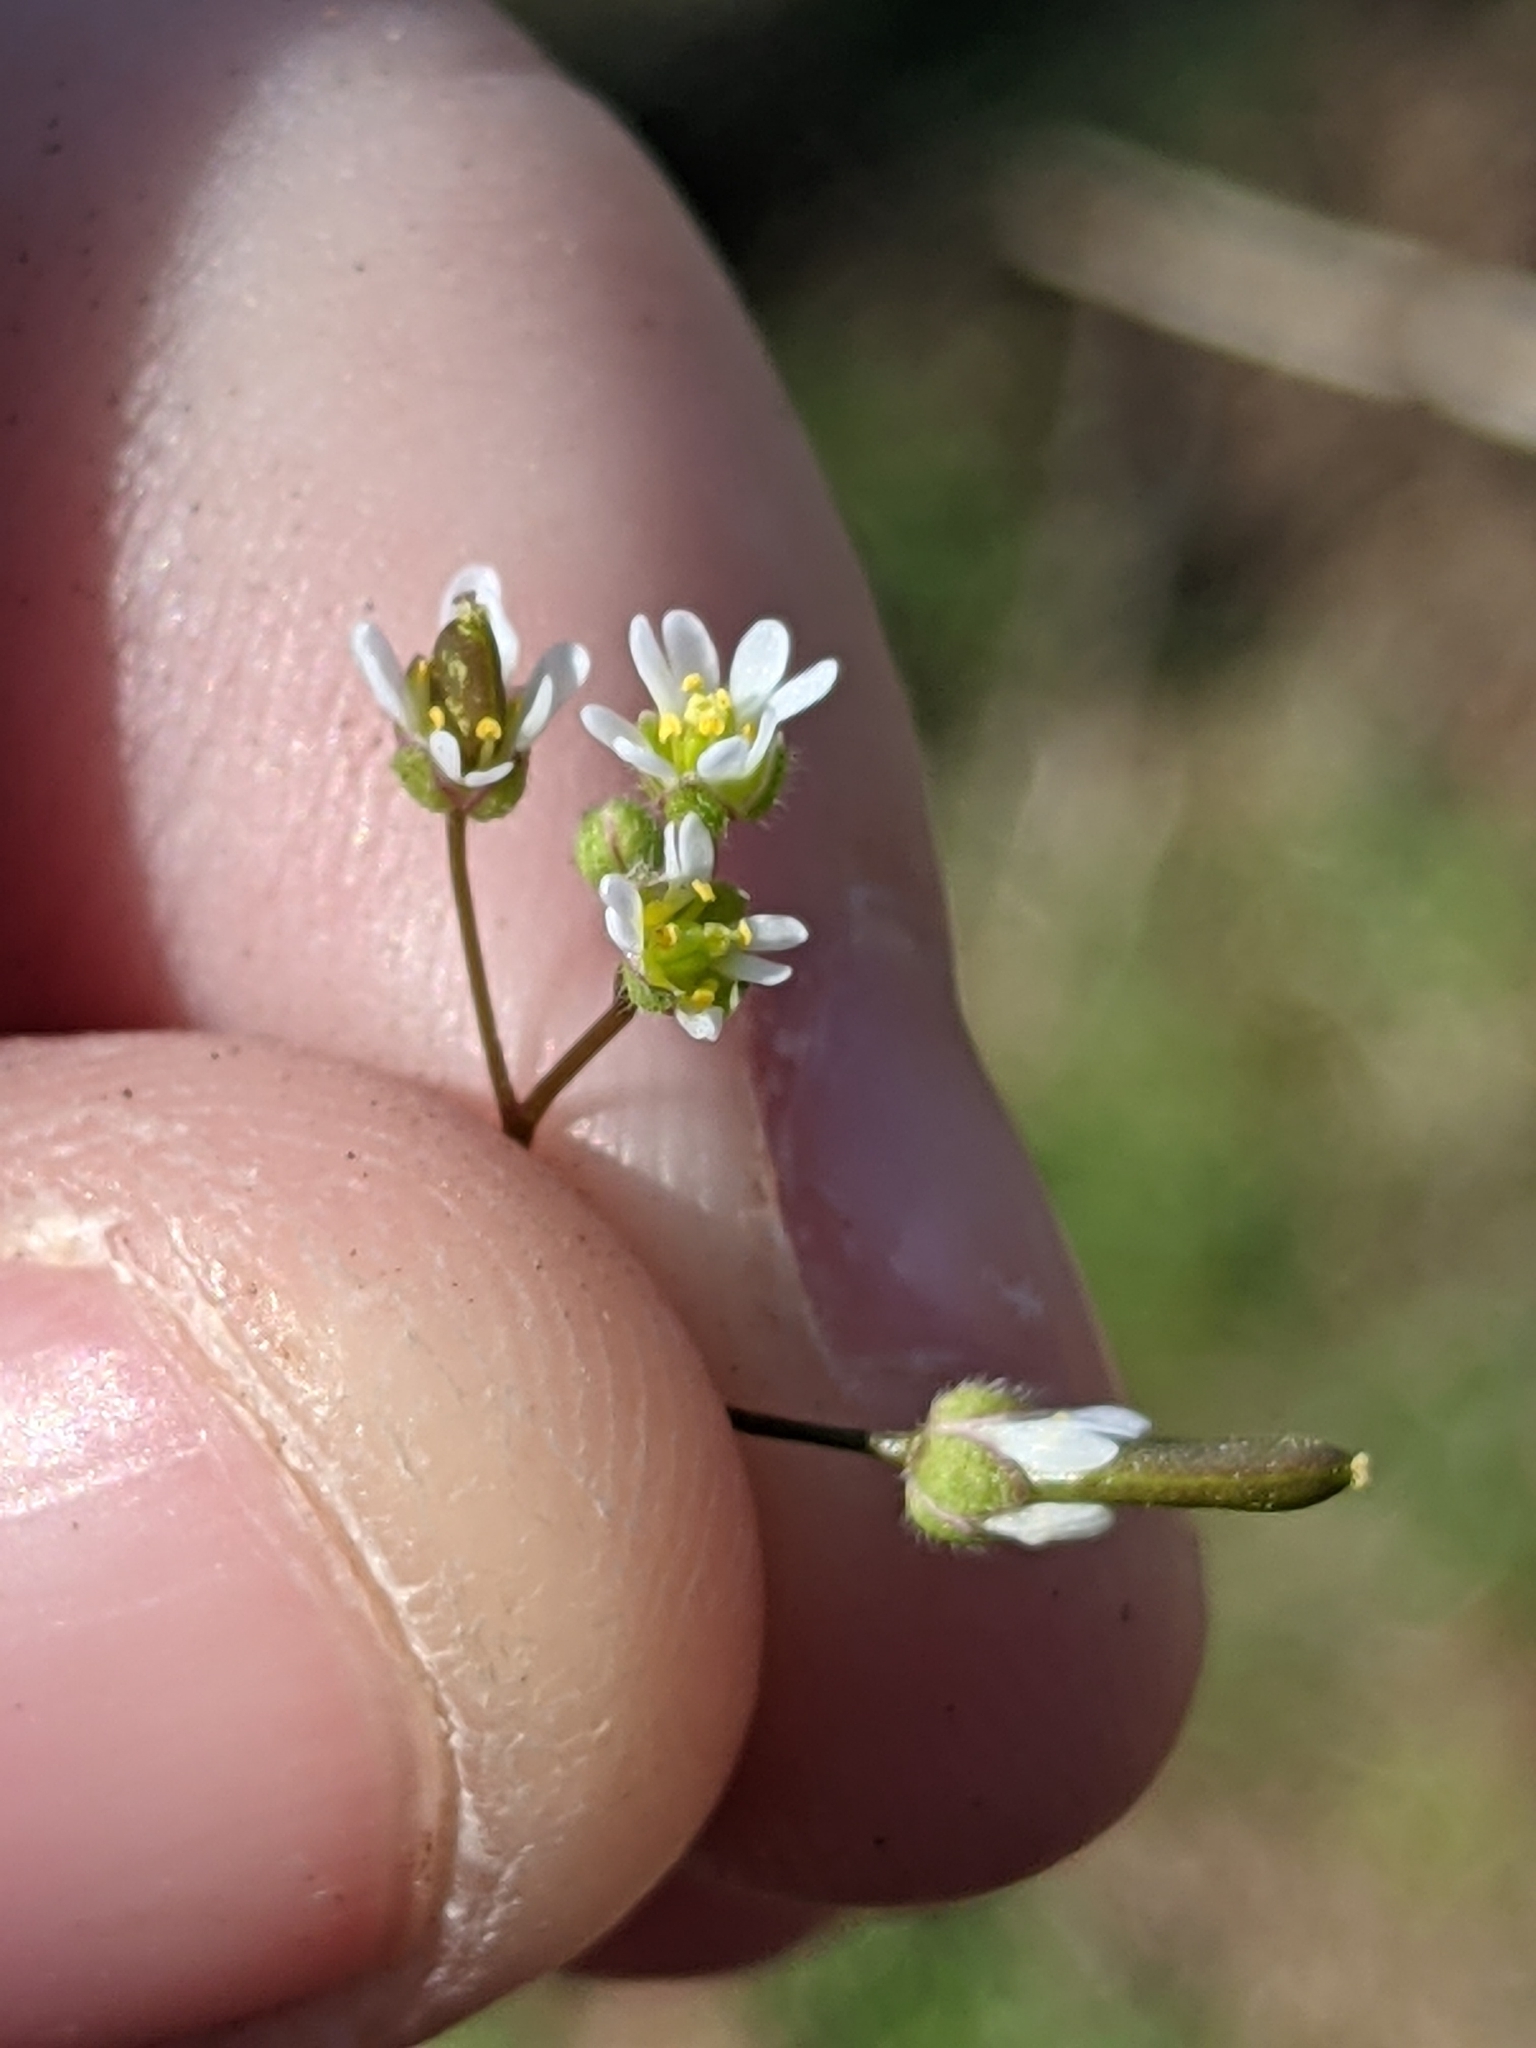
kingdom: Plantae
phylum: Tracheophyta
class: Magnoliopsida
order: Brassicales
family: Brassicaceae
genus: Draba
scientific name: Draba verna
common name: Spring draba
